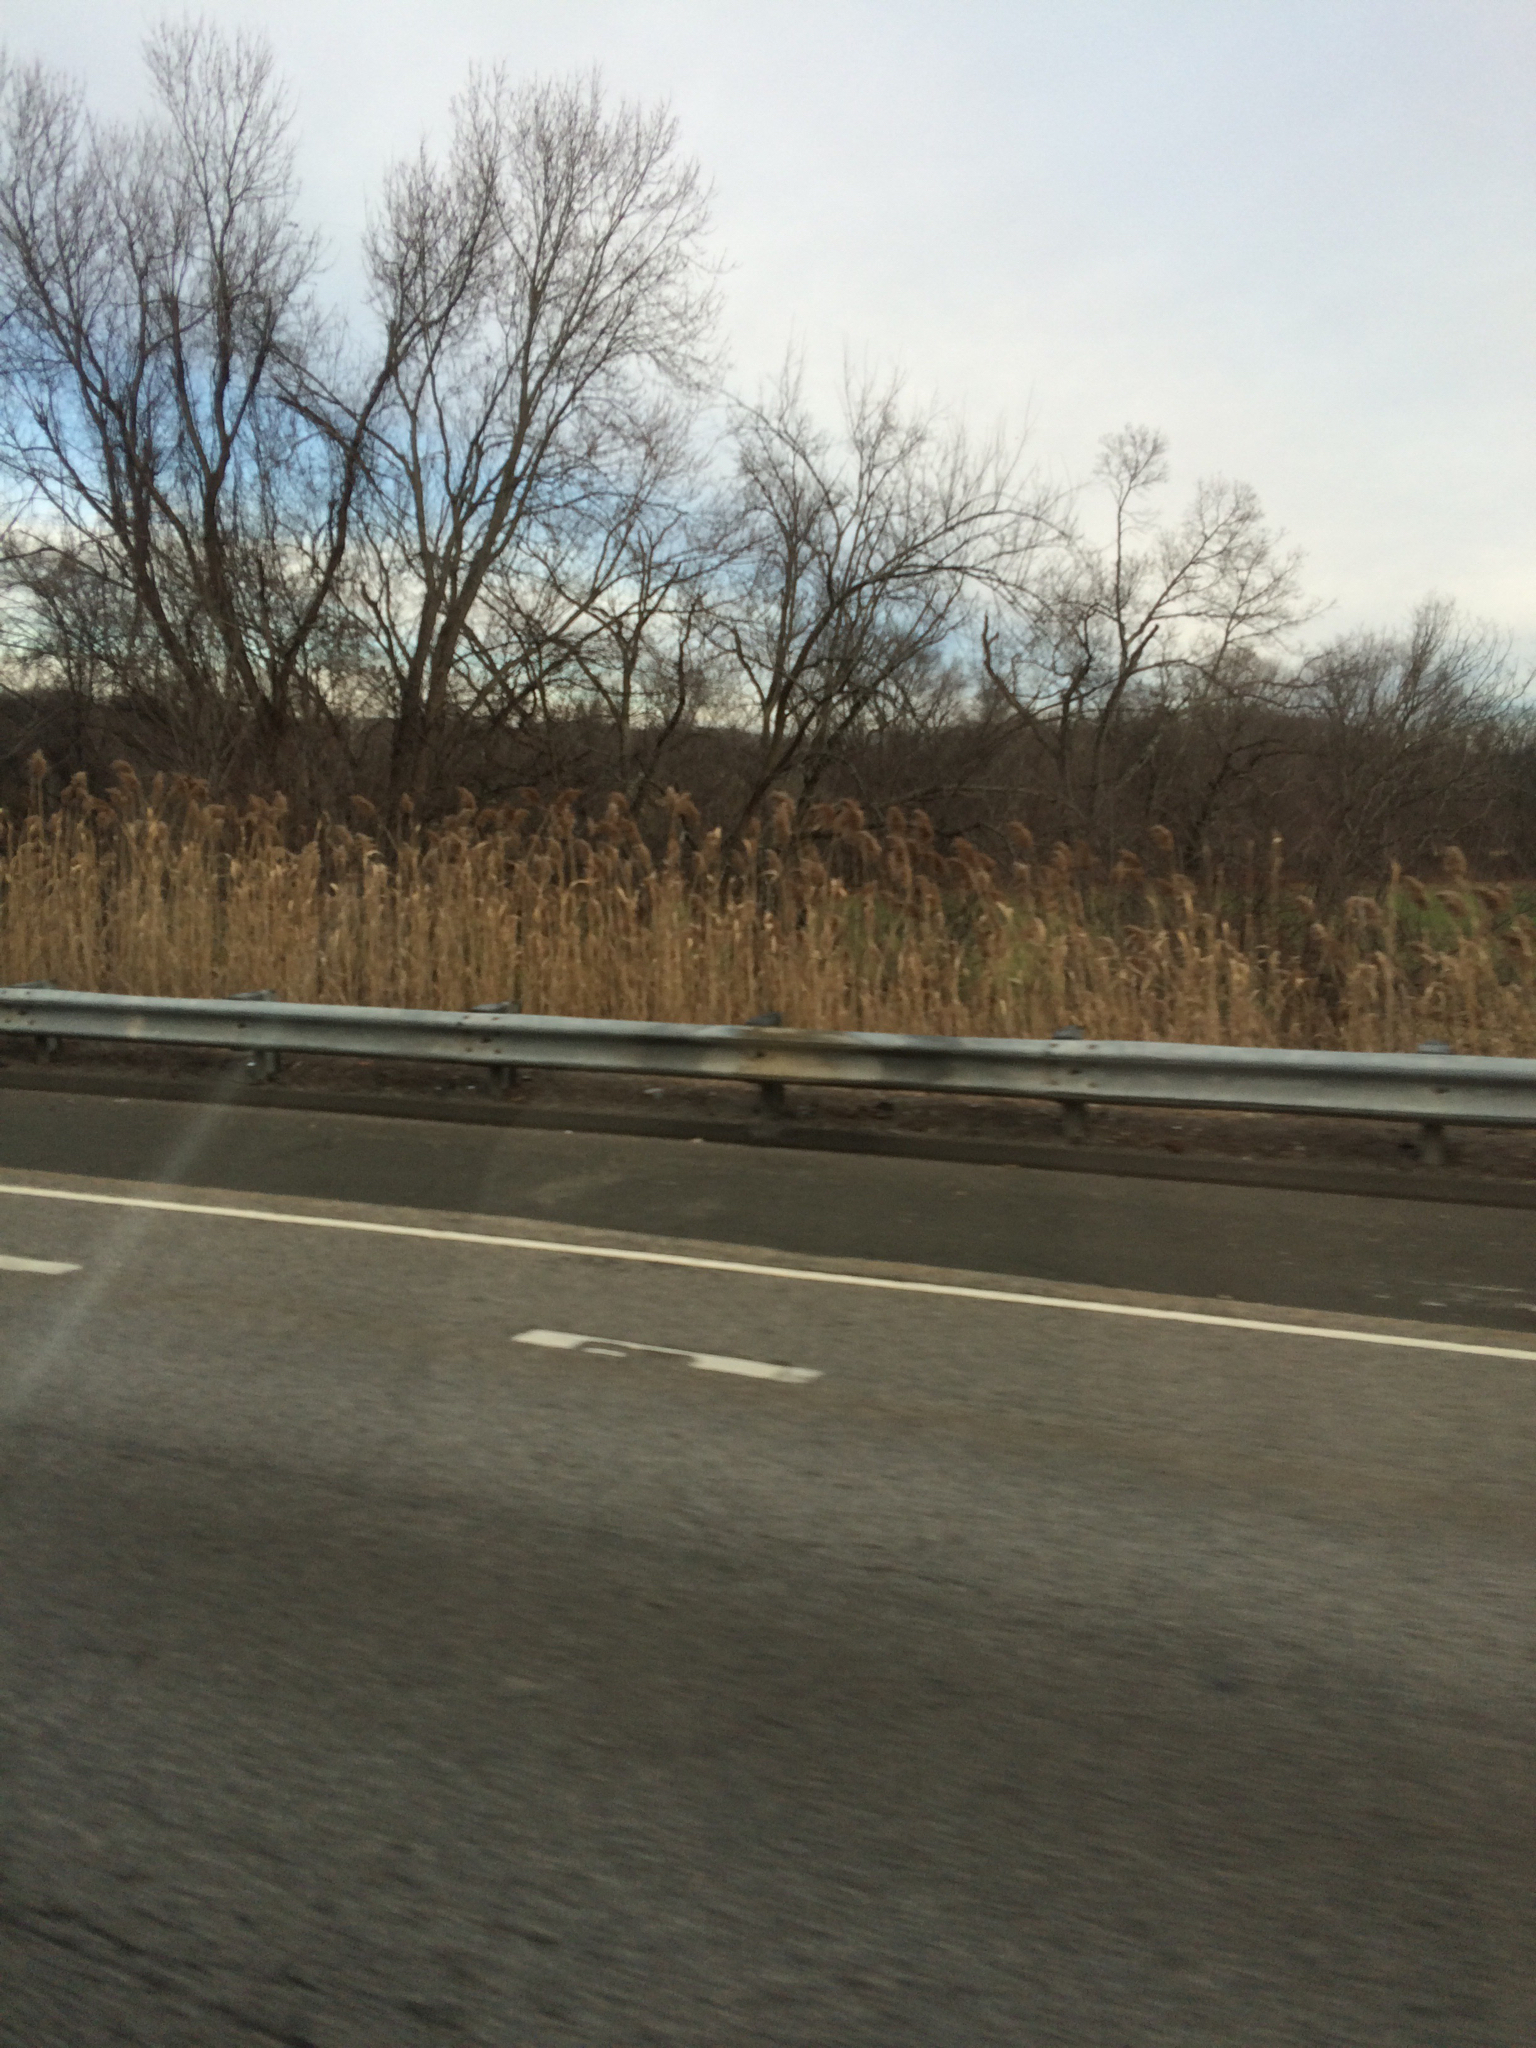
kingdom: Plantae
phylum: Tracheophyta
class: Liliopsida
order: Poales
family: Poaceae
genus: Phragmites
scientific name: Phragmites australis
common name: Common reed
